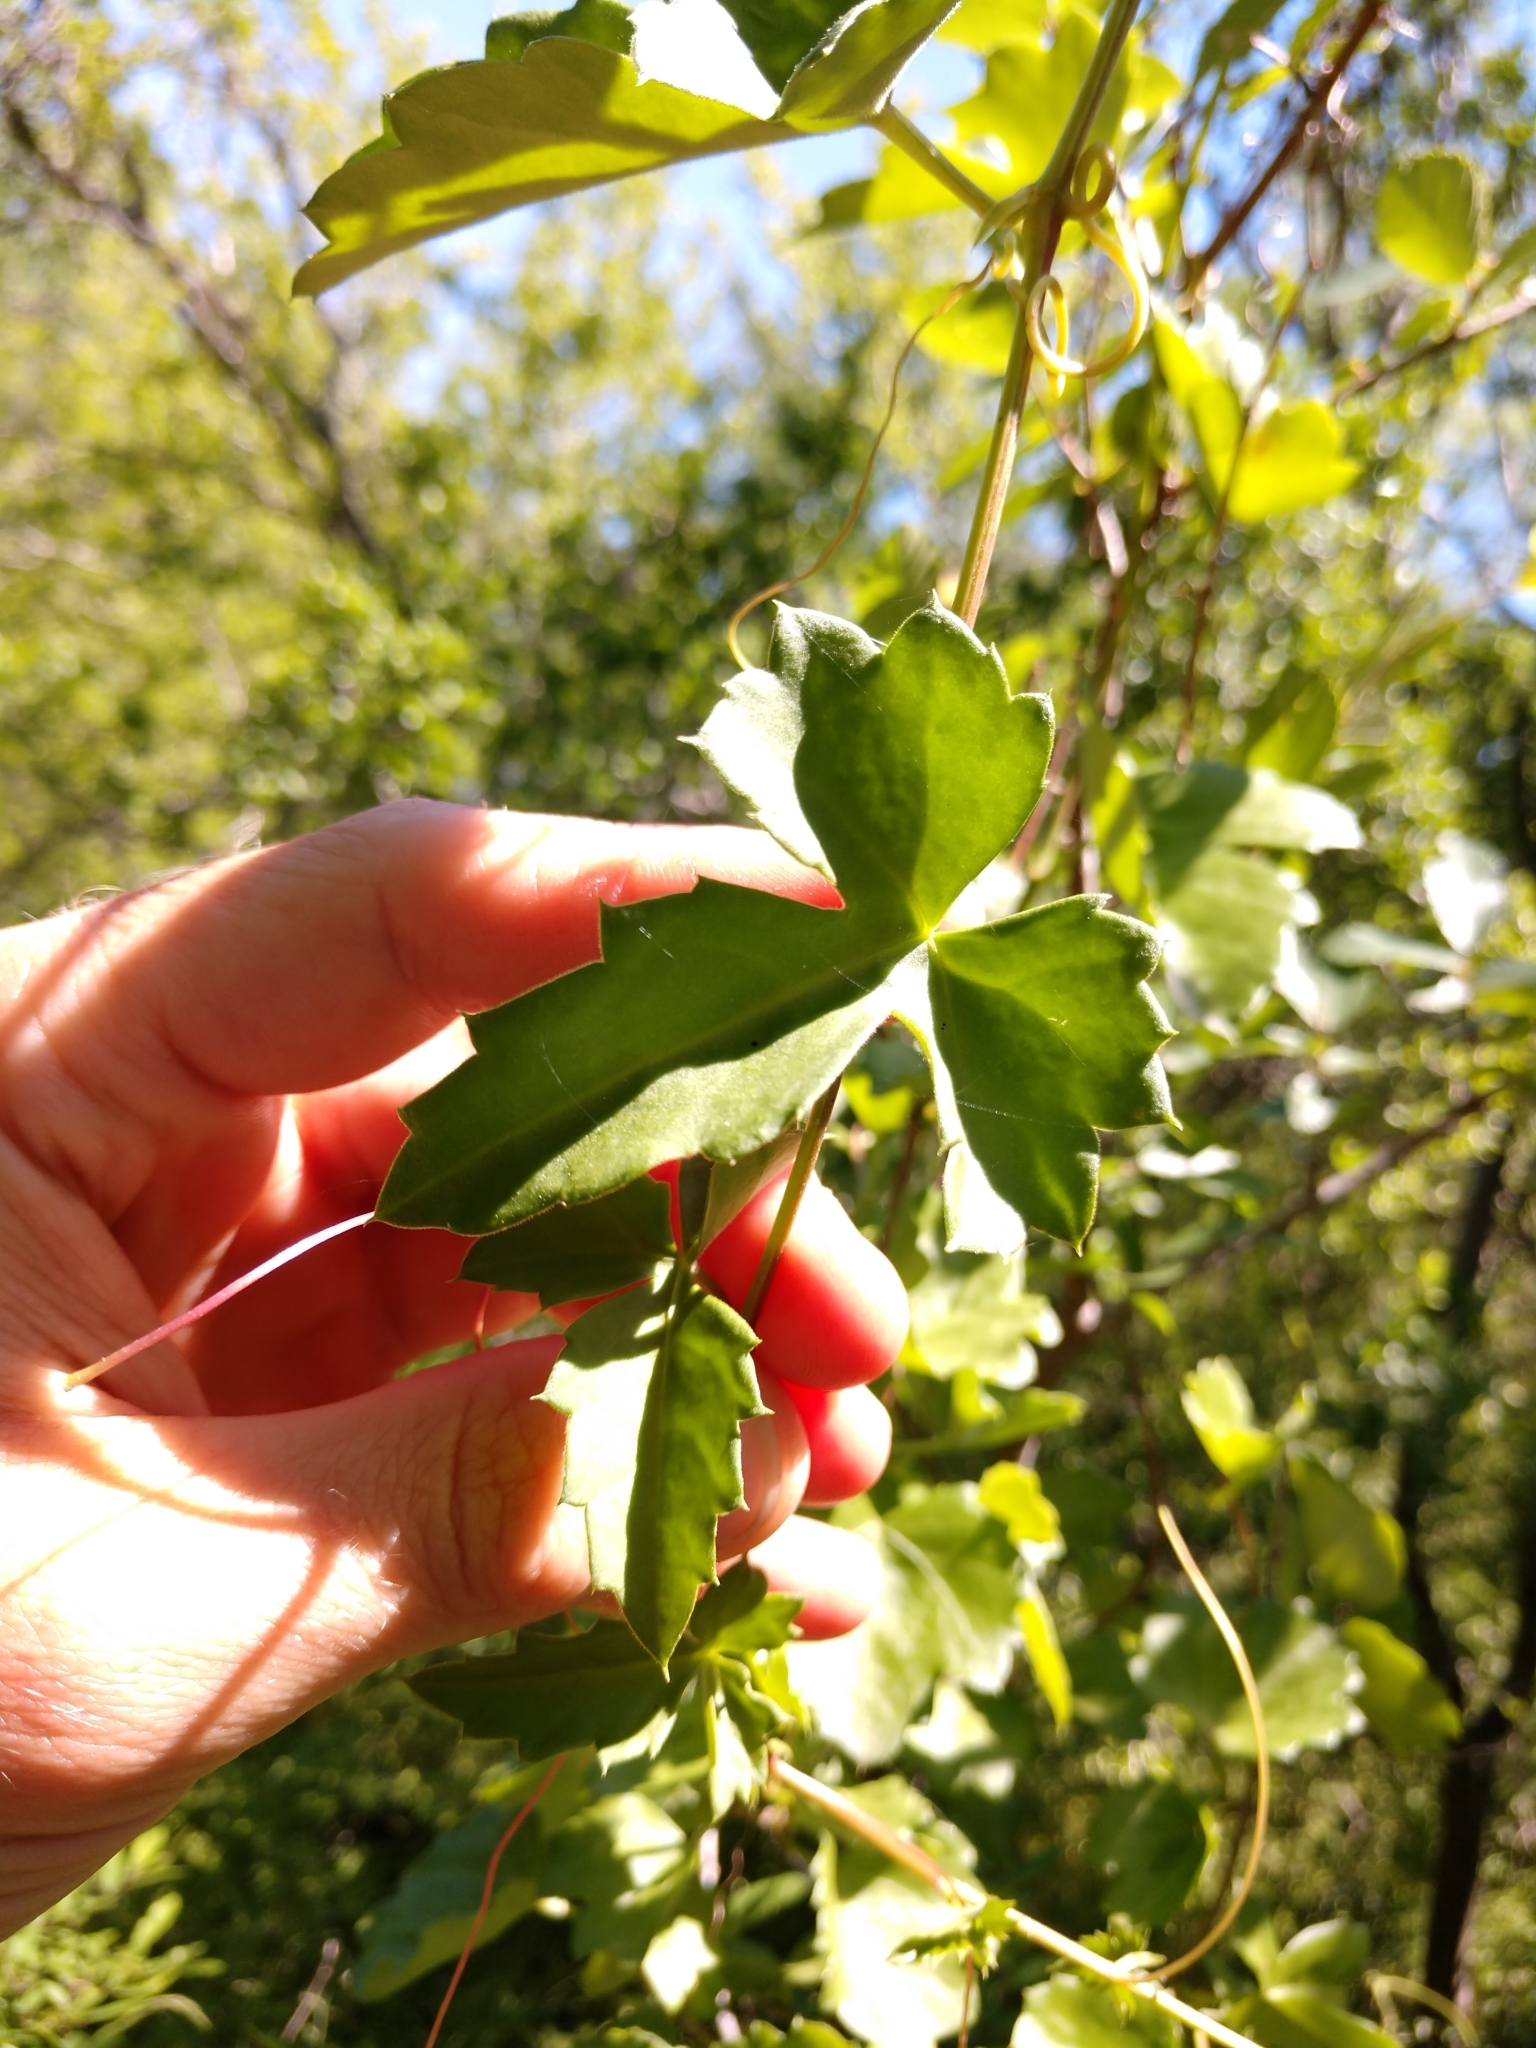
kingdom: Plantae
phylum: Tracheophyta
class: Magnoliopsida
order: Vitales
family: Vitaceae
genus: Cissus
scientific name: Cissus trifoliata
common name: Vine-sorrel
